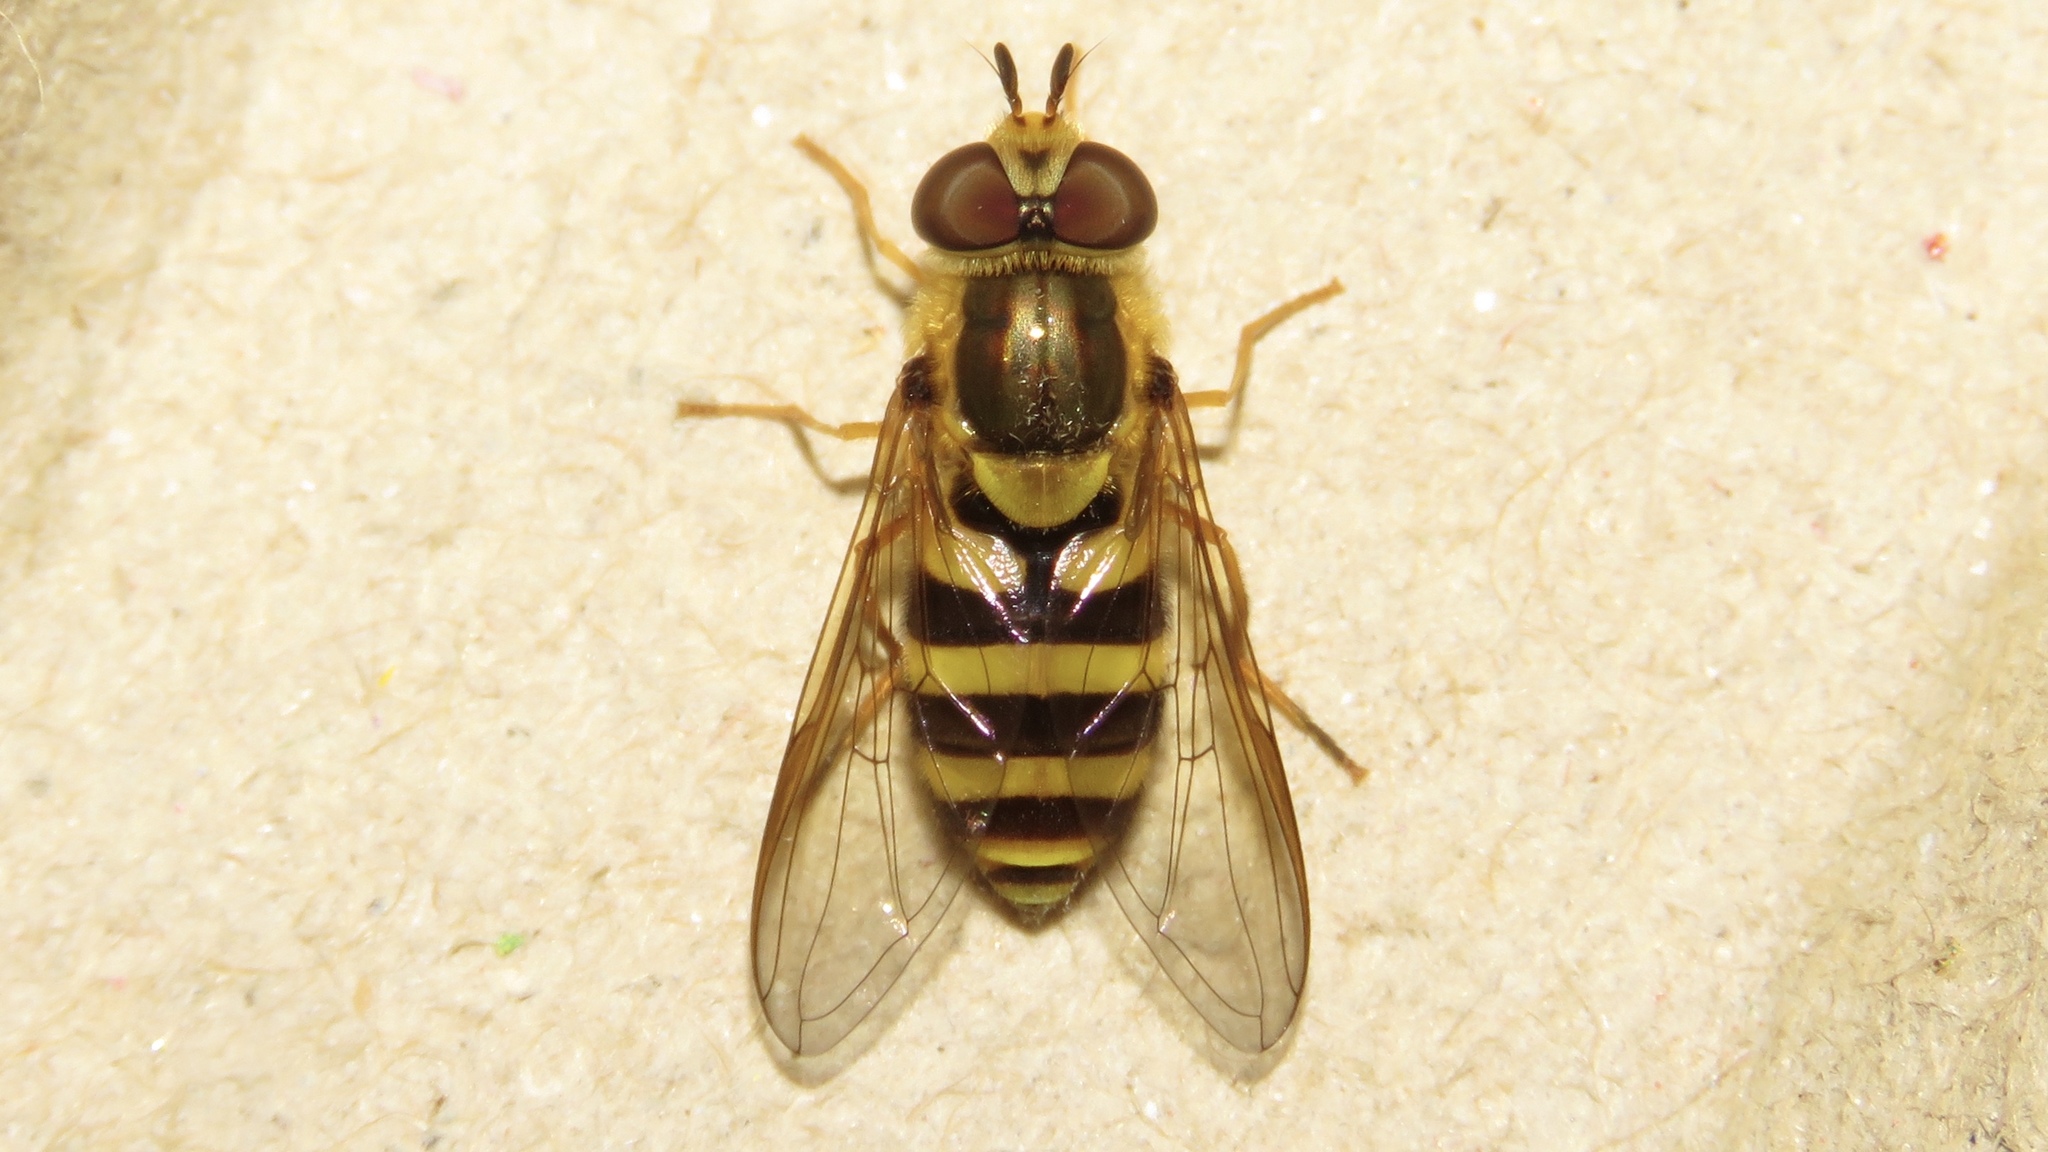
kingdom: Animalia
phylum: Arthropoda
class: Insecta
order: Diptera
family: Syrphidae
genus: Syrphus
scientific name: Syrphus knabi
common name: Eastern flower fly
